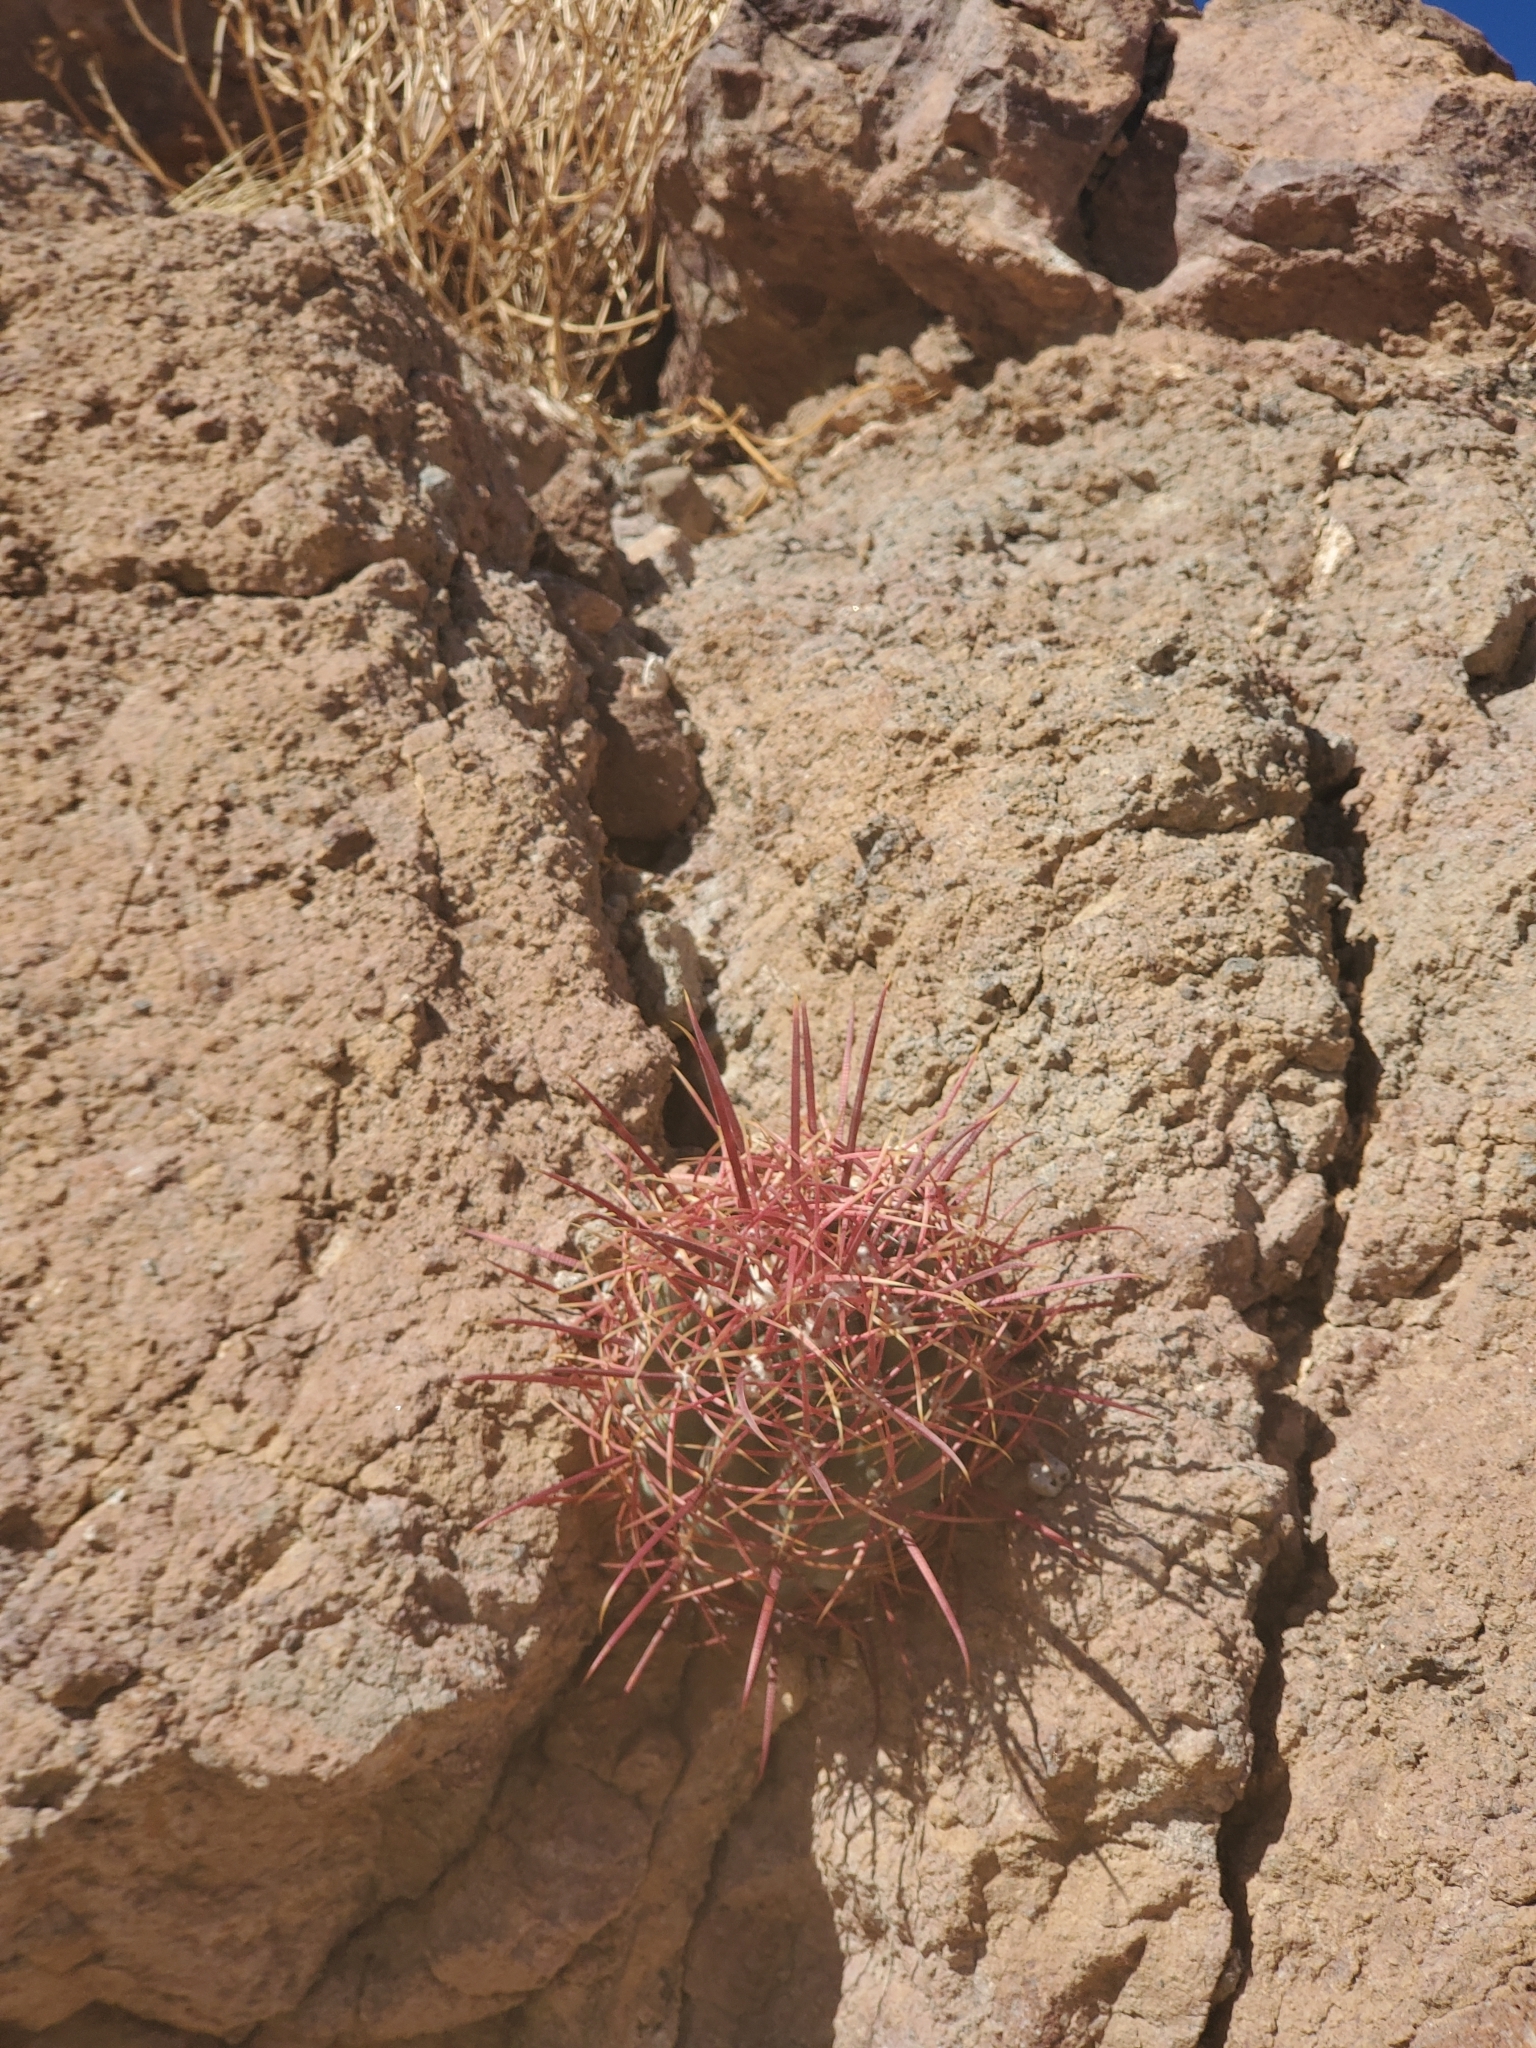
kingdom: Plantae
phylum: Tracheophyta
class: Magnoliopsida
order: Caryophyllales
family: Cactaceae
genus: Ferocactus
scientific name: Ferocactus cylindraceus
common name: California barrel cactus
